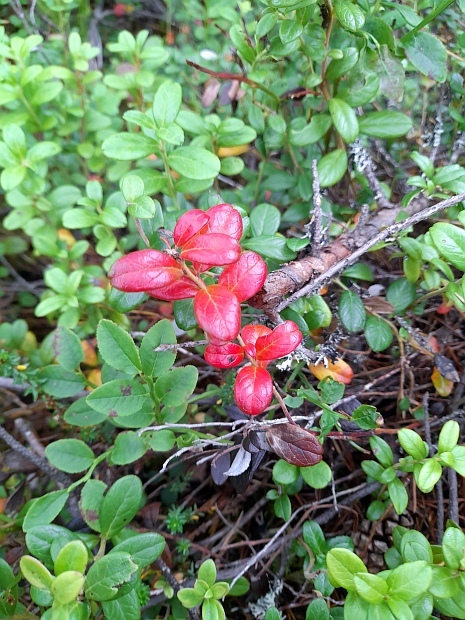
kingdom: Plantae
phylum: Tracheophyta
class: Magnoliopsida
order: Ericales
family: Ericaceae
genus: Vaccinium
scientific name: Vaccinium vitis-idaea
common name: Cowberry
